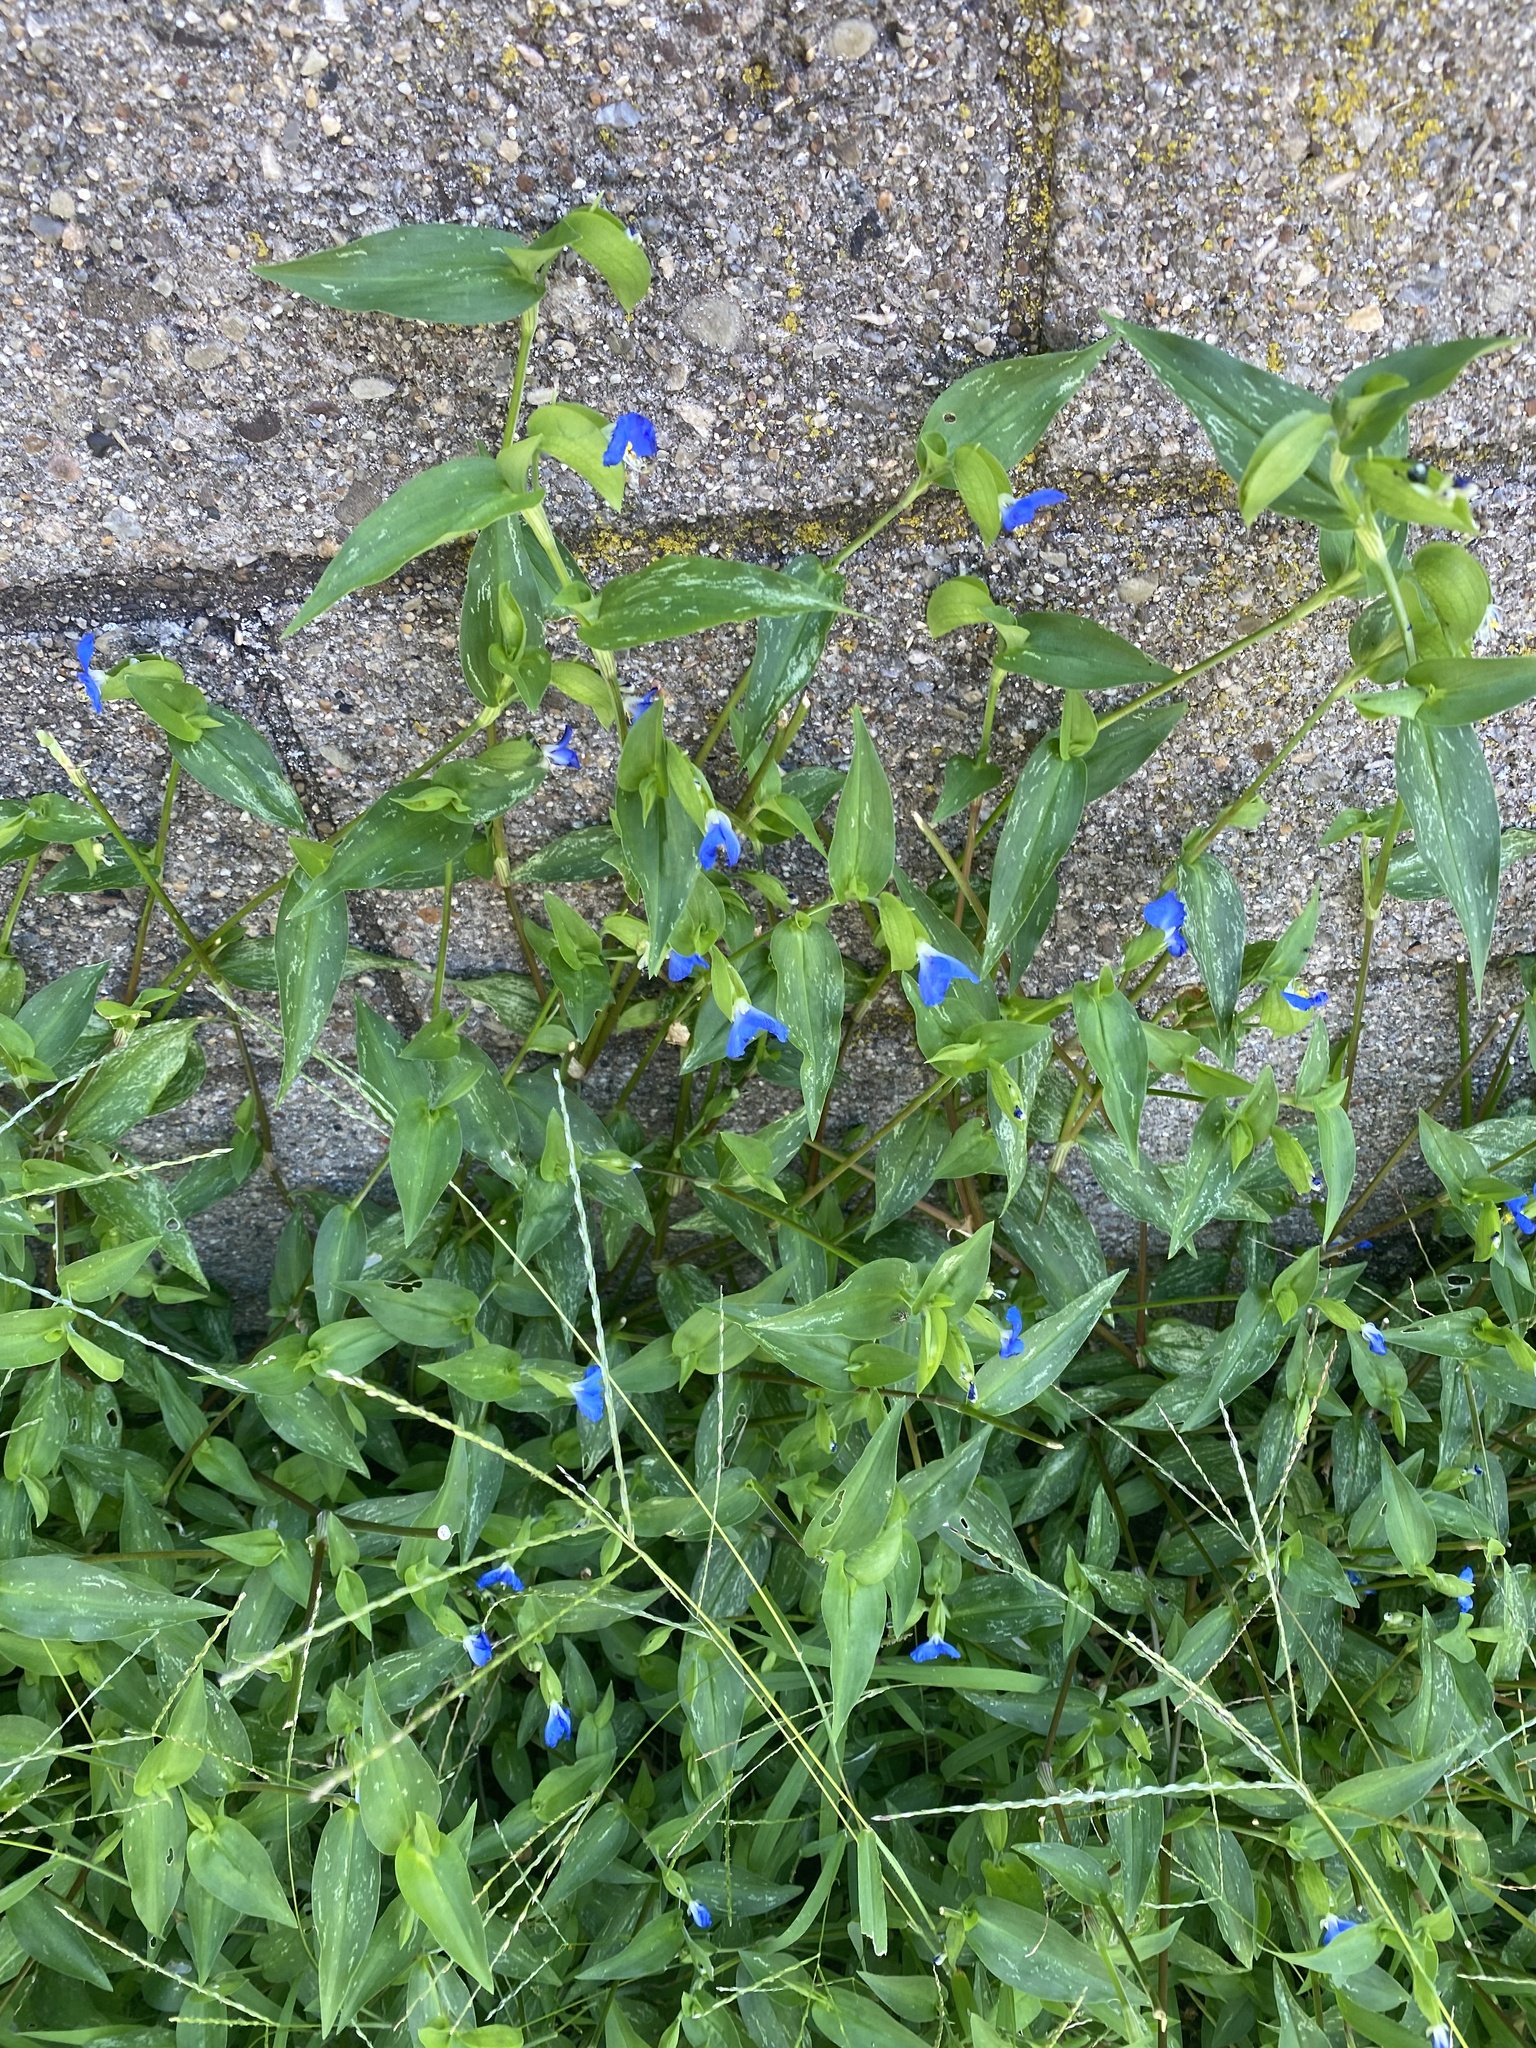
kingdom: Plantae
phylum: Tracheophyta
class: Liliopsida
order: Commelinales
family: Commelinaceae
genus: Commelina
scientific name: Commelina communis
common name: Asiatic dayflower
